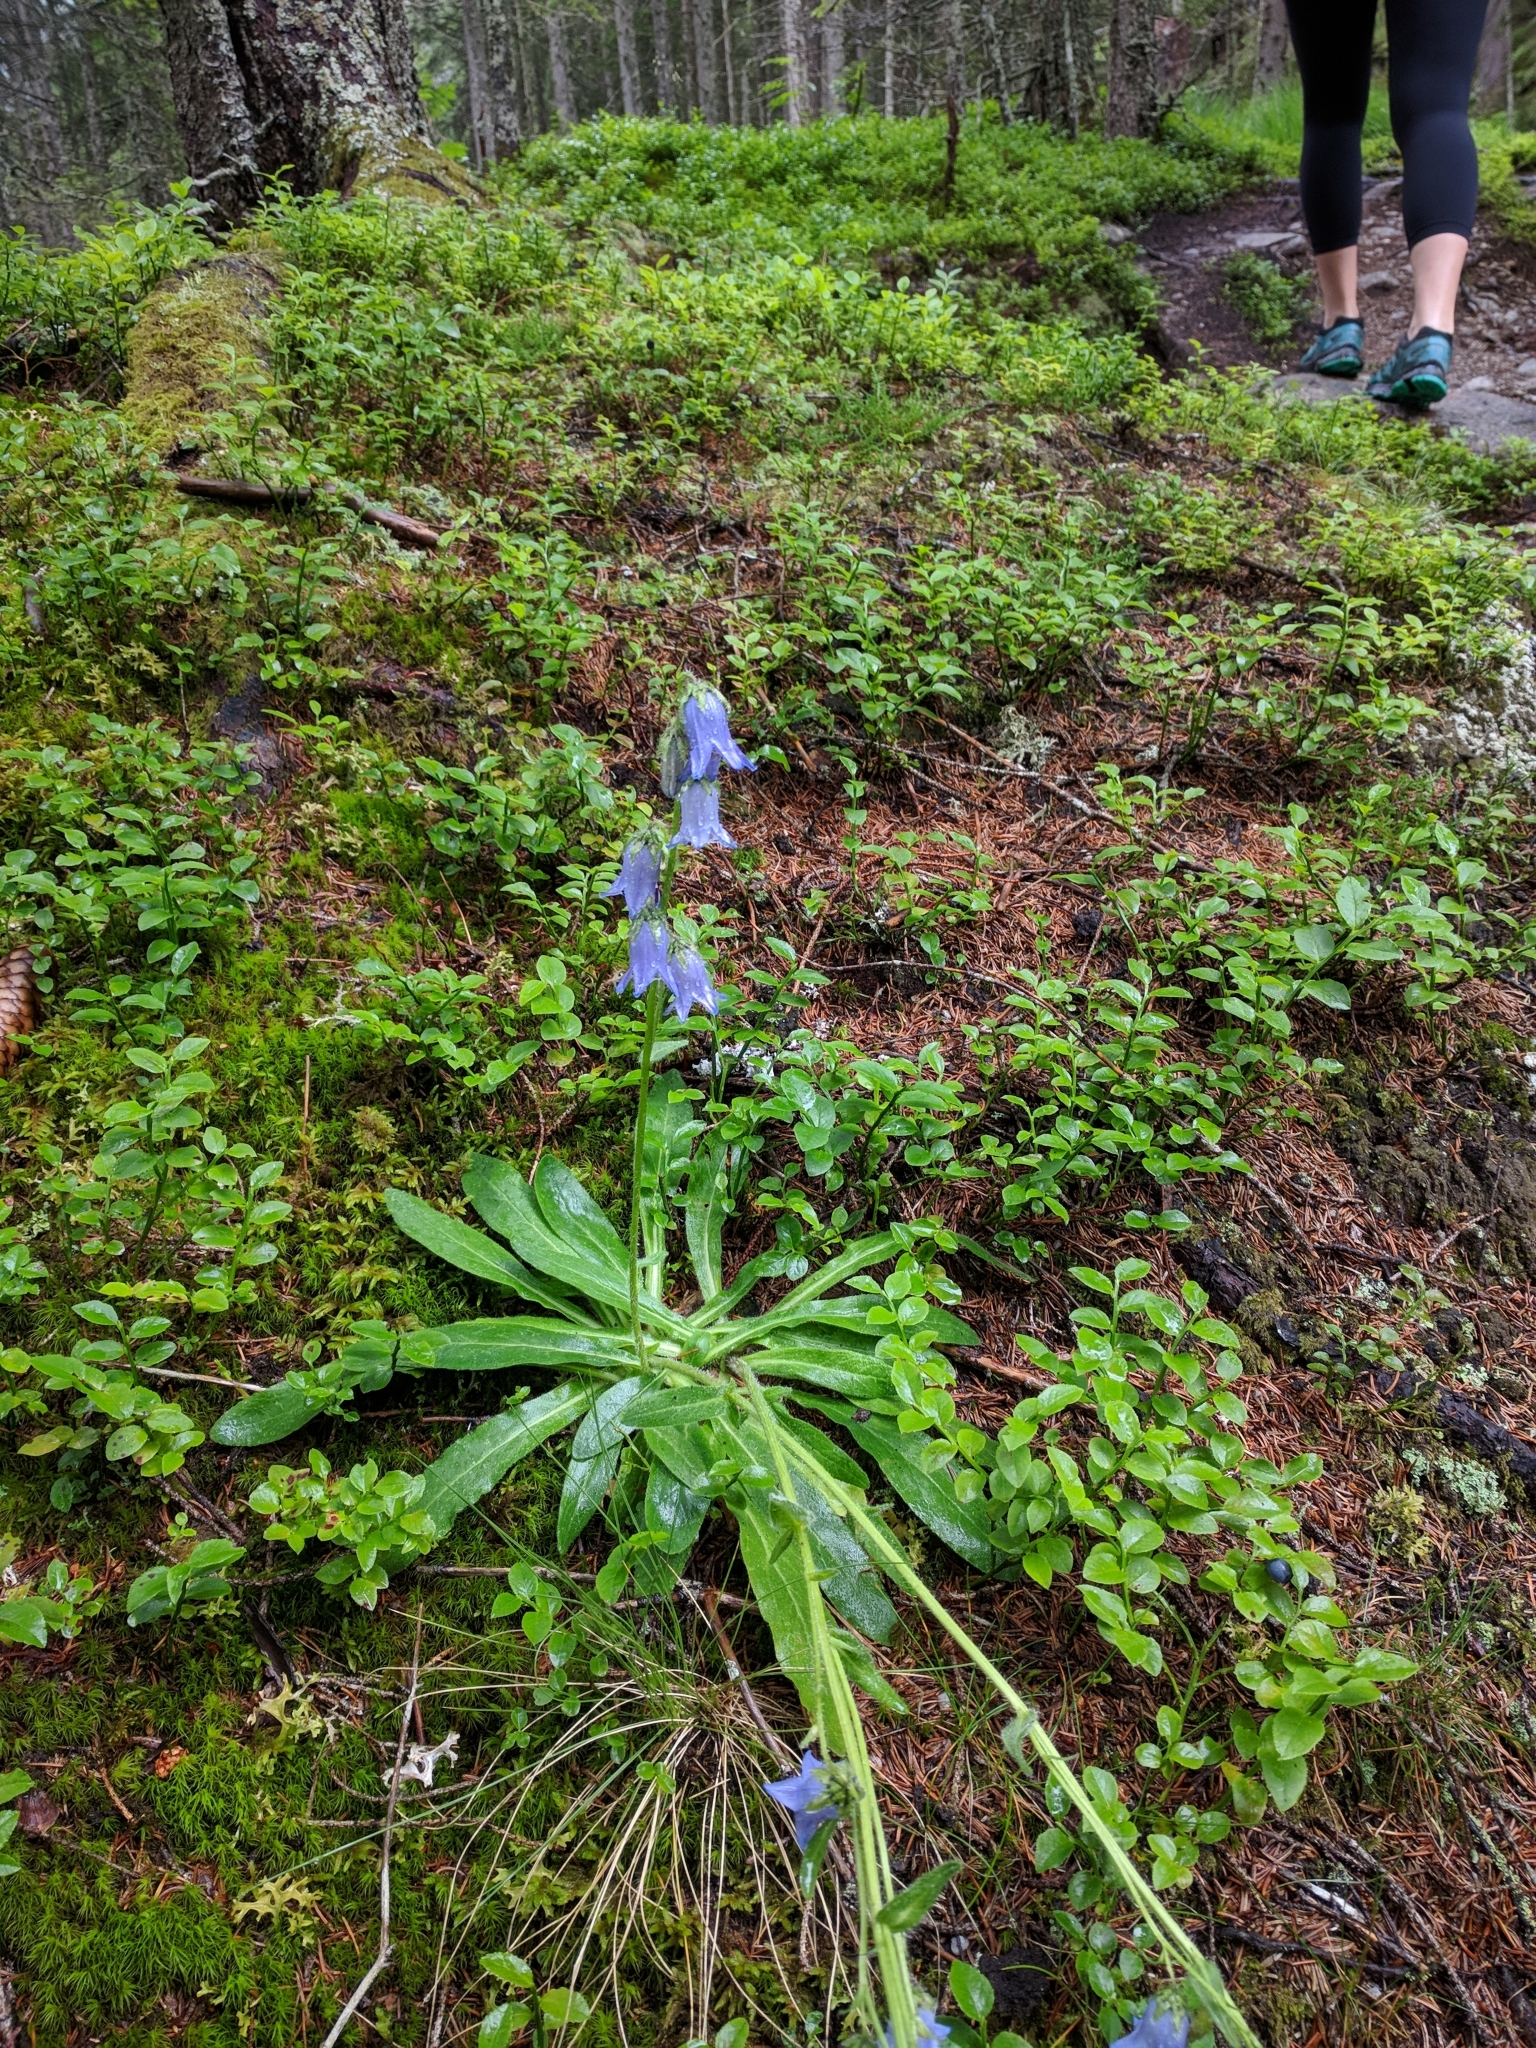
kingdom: Plantae
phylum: Tracheophyta
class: Magnoliopsida
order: Asterales
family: Campanulaceae
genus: Campanula
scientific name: Campanula barbata
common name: Bearded bellflower
